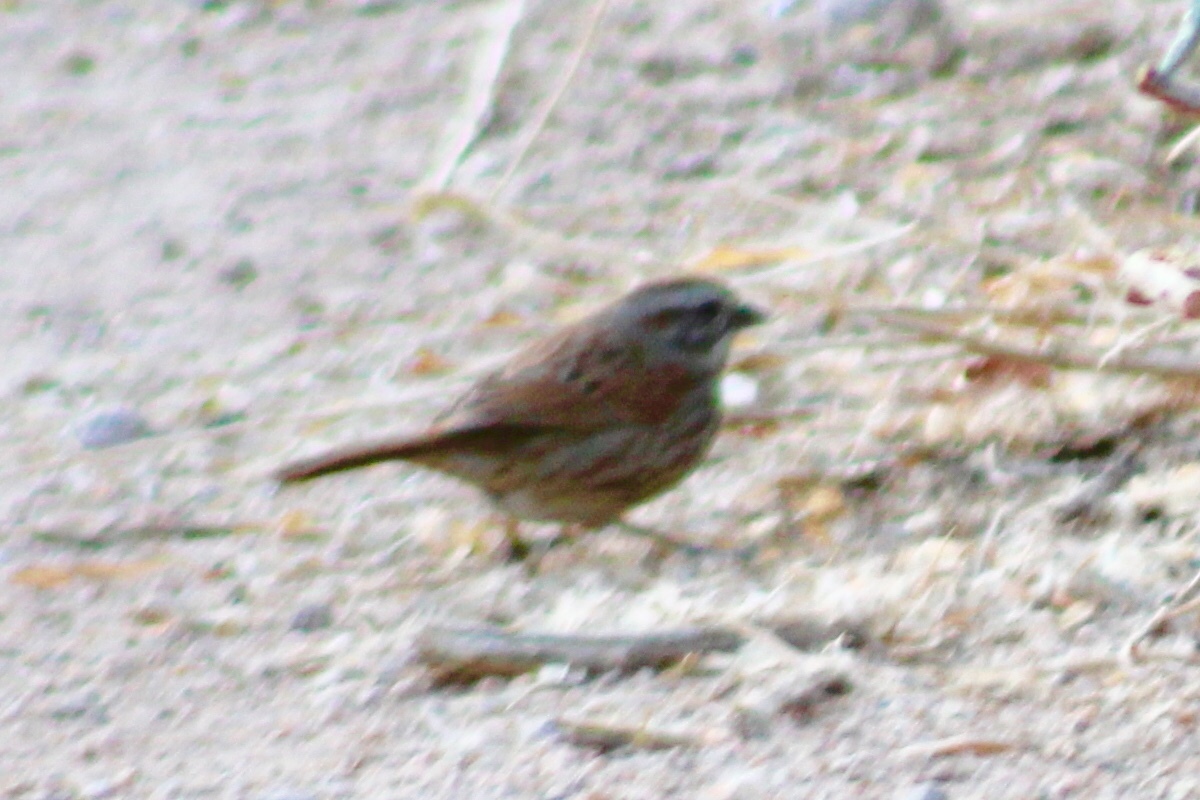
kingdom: Animalia
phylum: Chordata
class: Aves
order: Passeriformes
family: Passerellidae
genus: Melospiza
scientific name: Melospiza melodia
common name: Song sparrow
